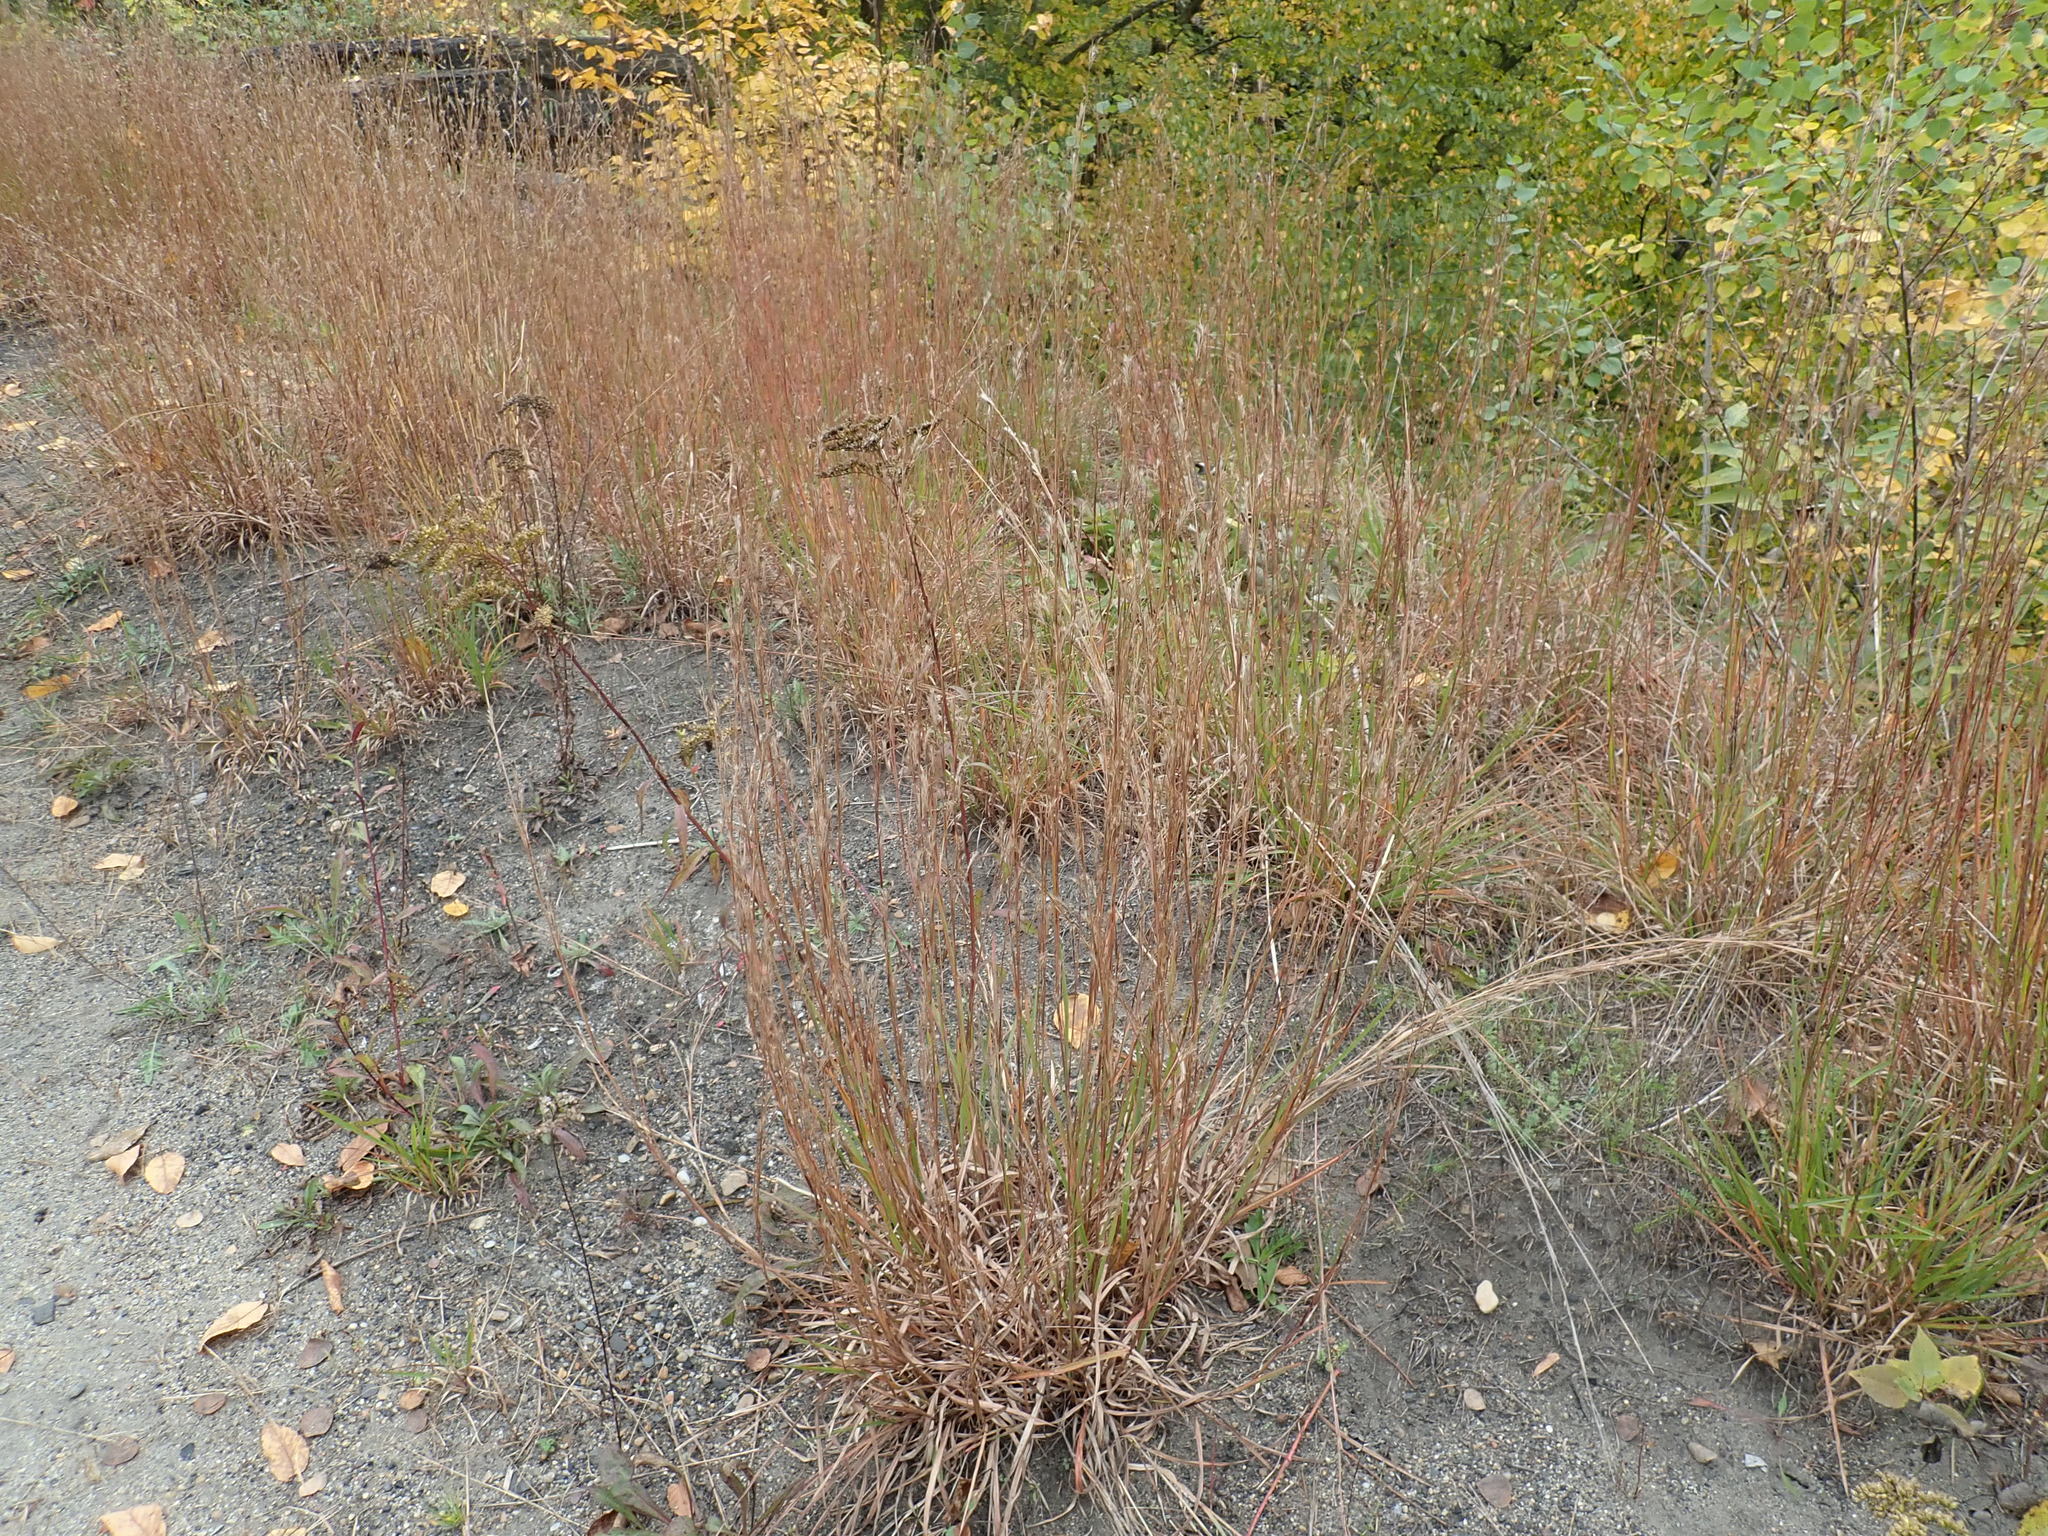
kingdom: Plantae
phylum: Tracheophyta
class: Liliopsida
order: Poales
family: Poaceae
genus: Schizachyrium
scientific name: Schizachyrium scoparium
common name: Little bluestem
